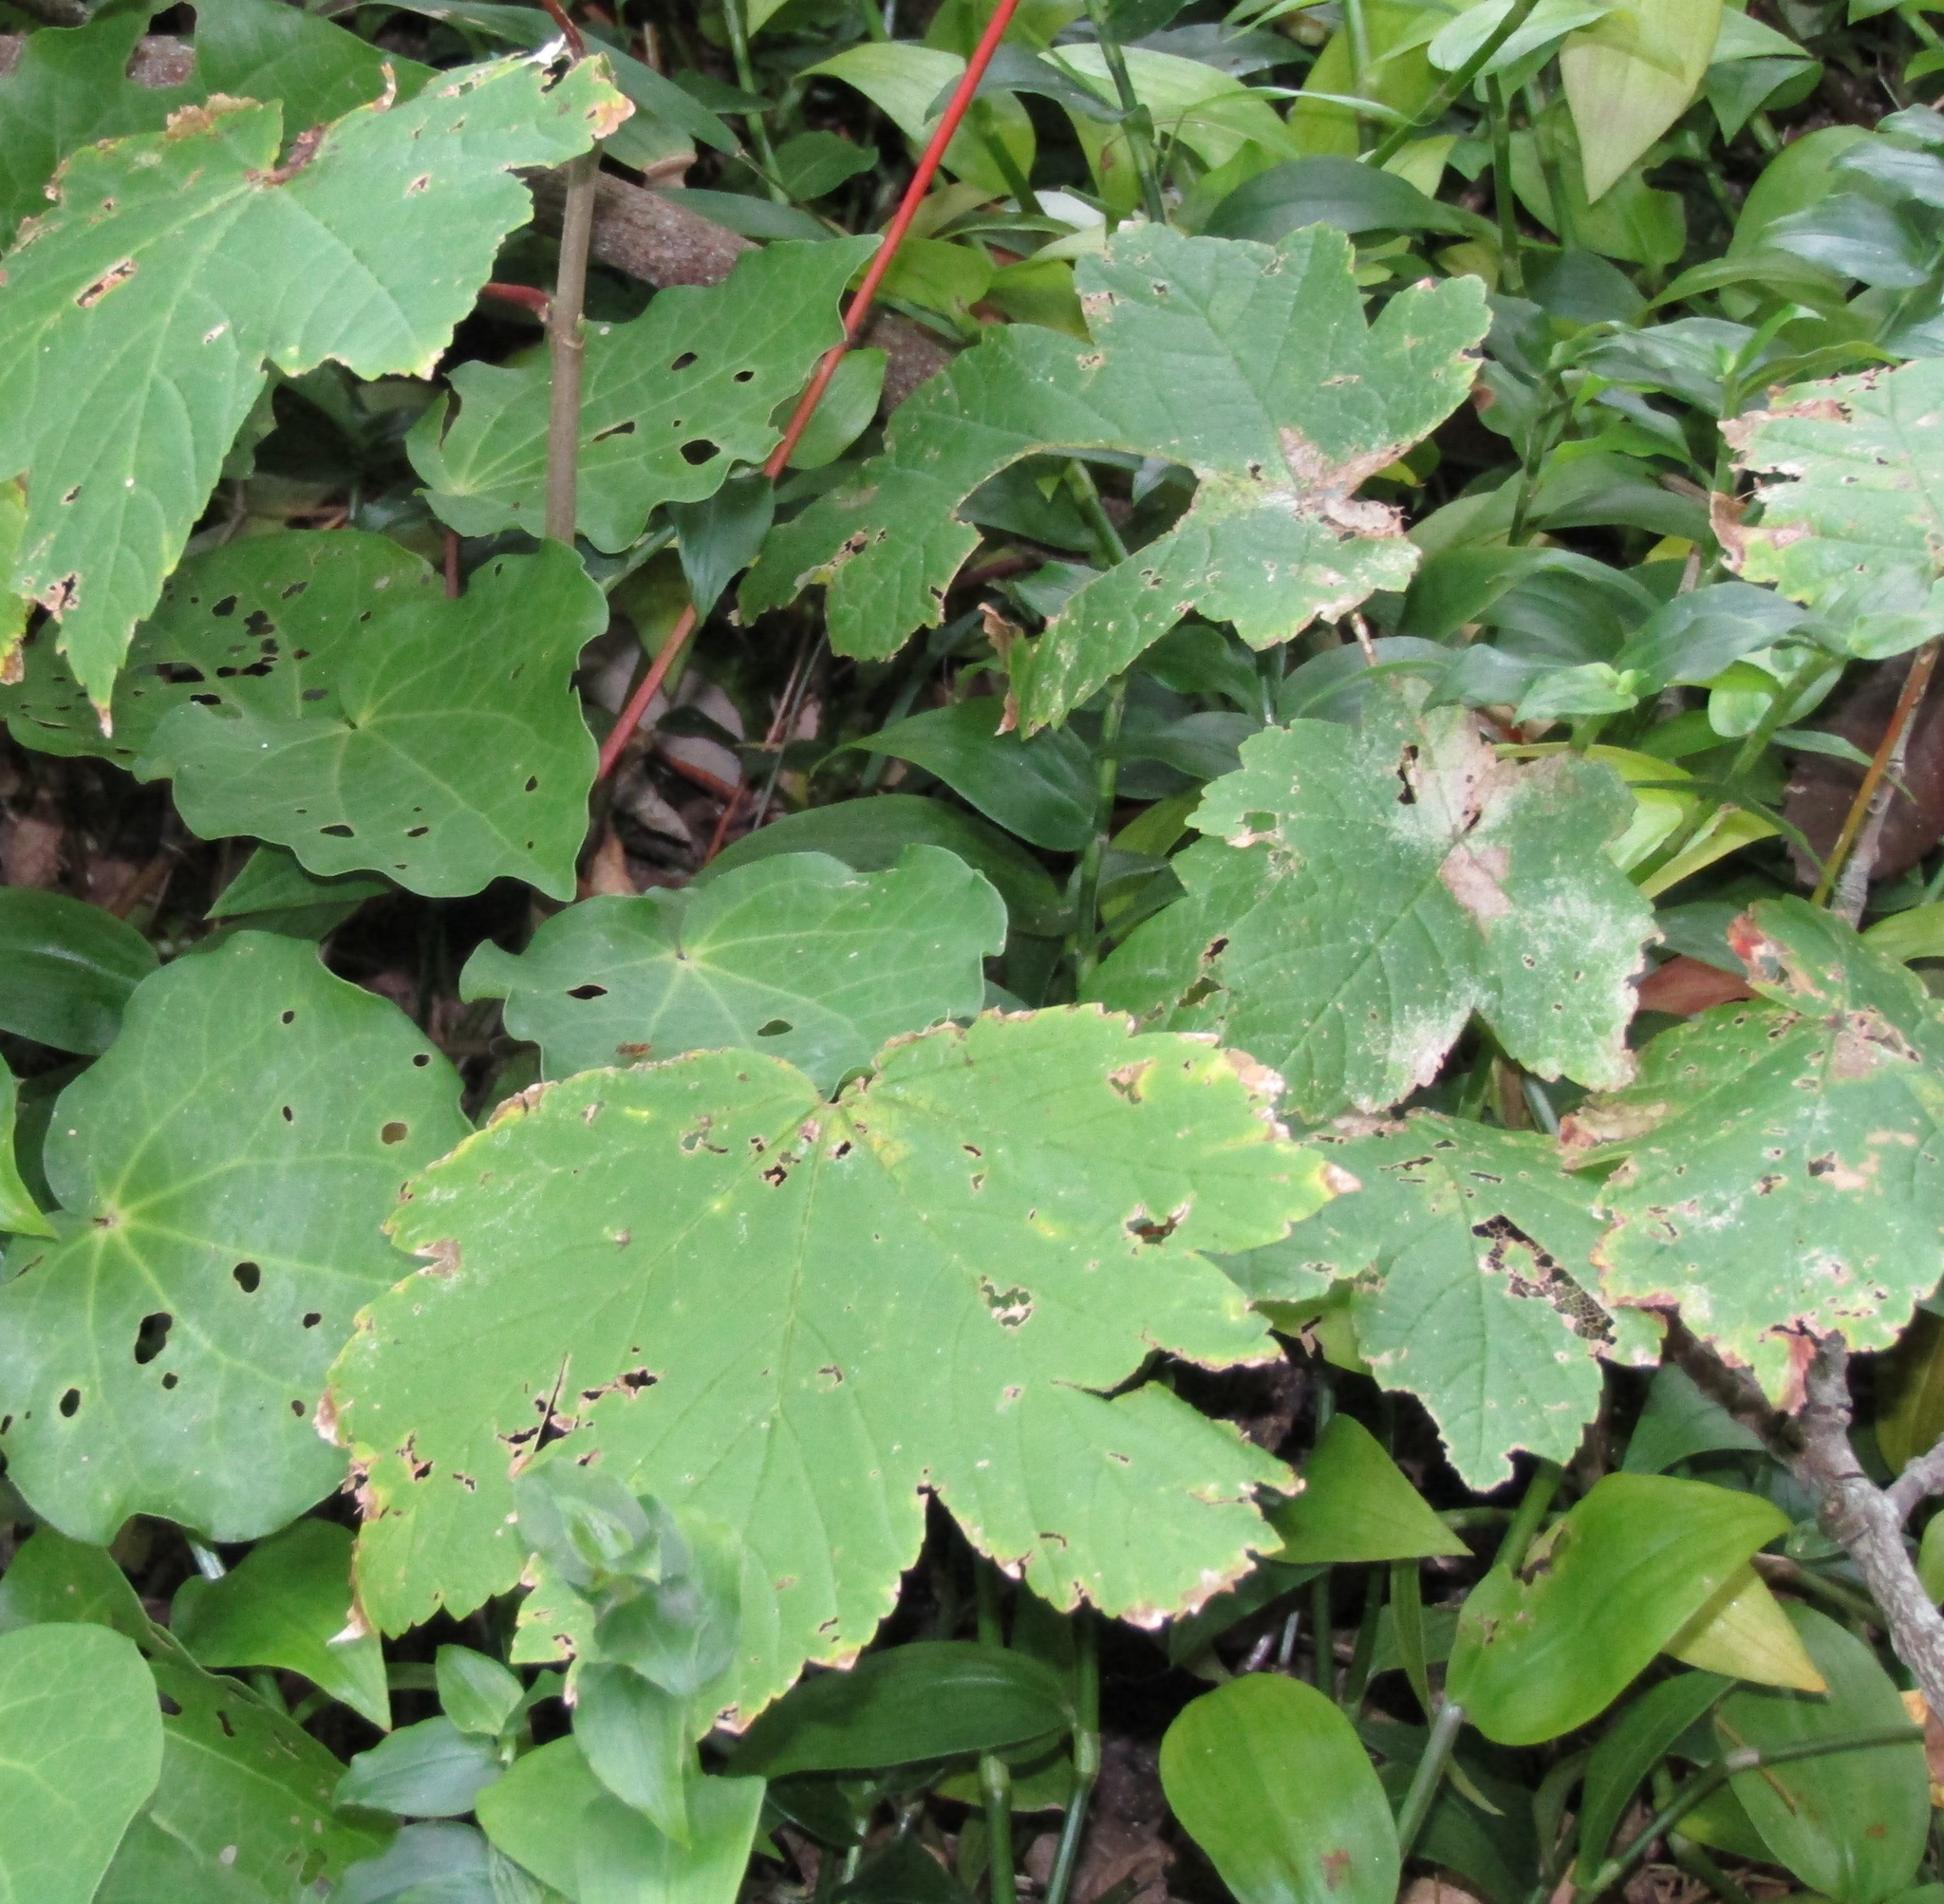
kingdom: Plantae
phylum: Tracheophyta
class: Magnoliopsida
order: Sapindales
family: Sapindaceae
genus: Acer
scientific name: Acer pseudoplatanus
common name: Sycamore
